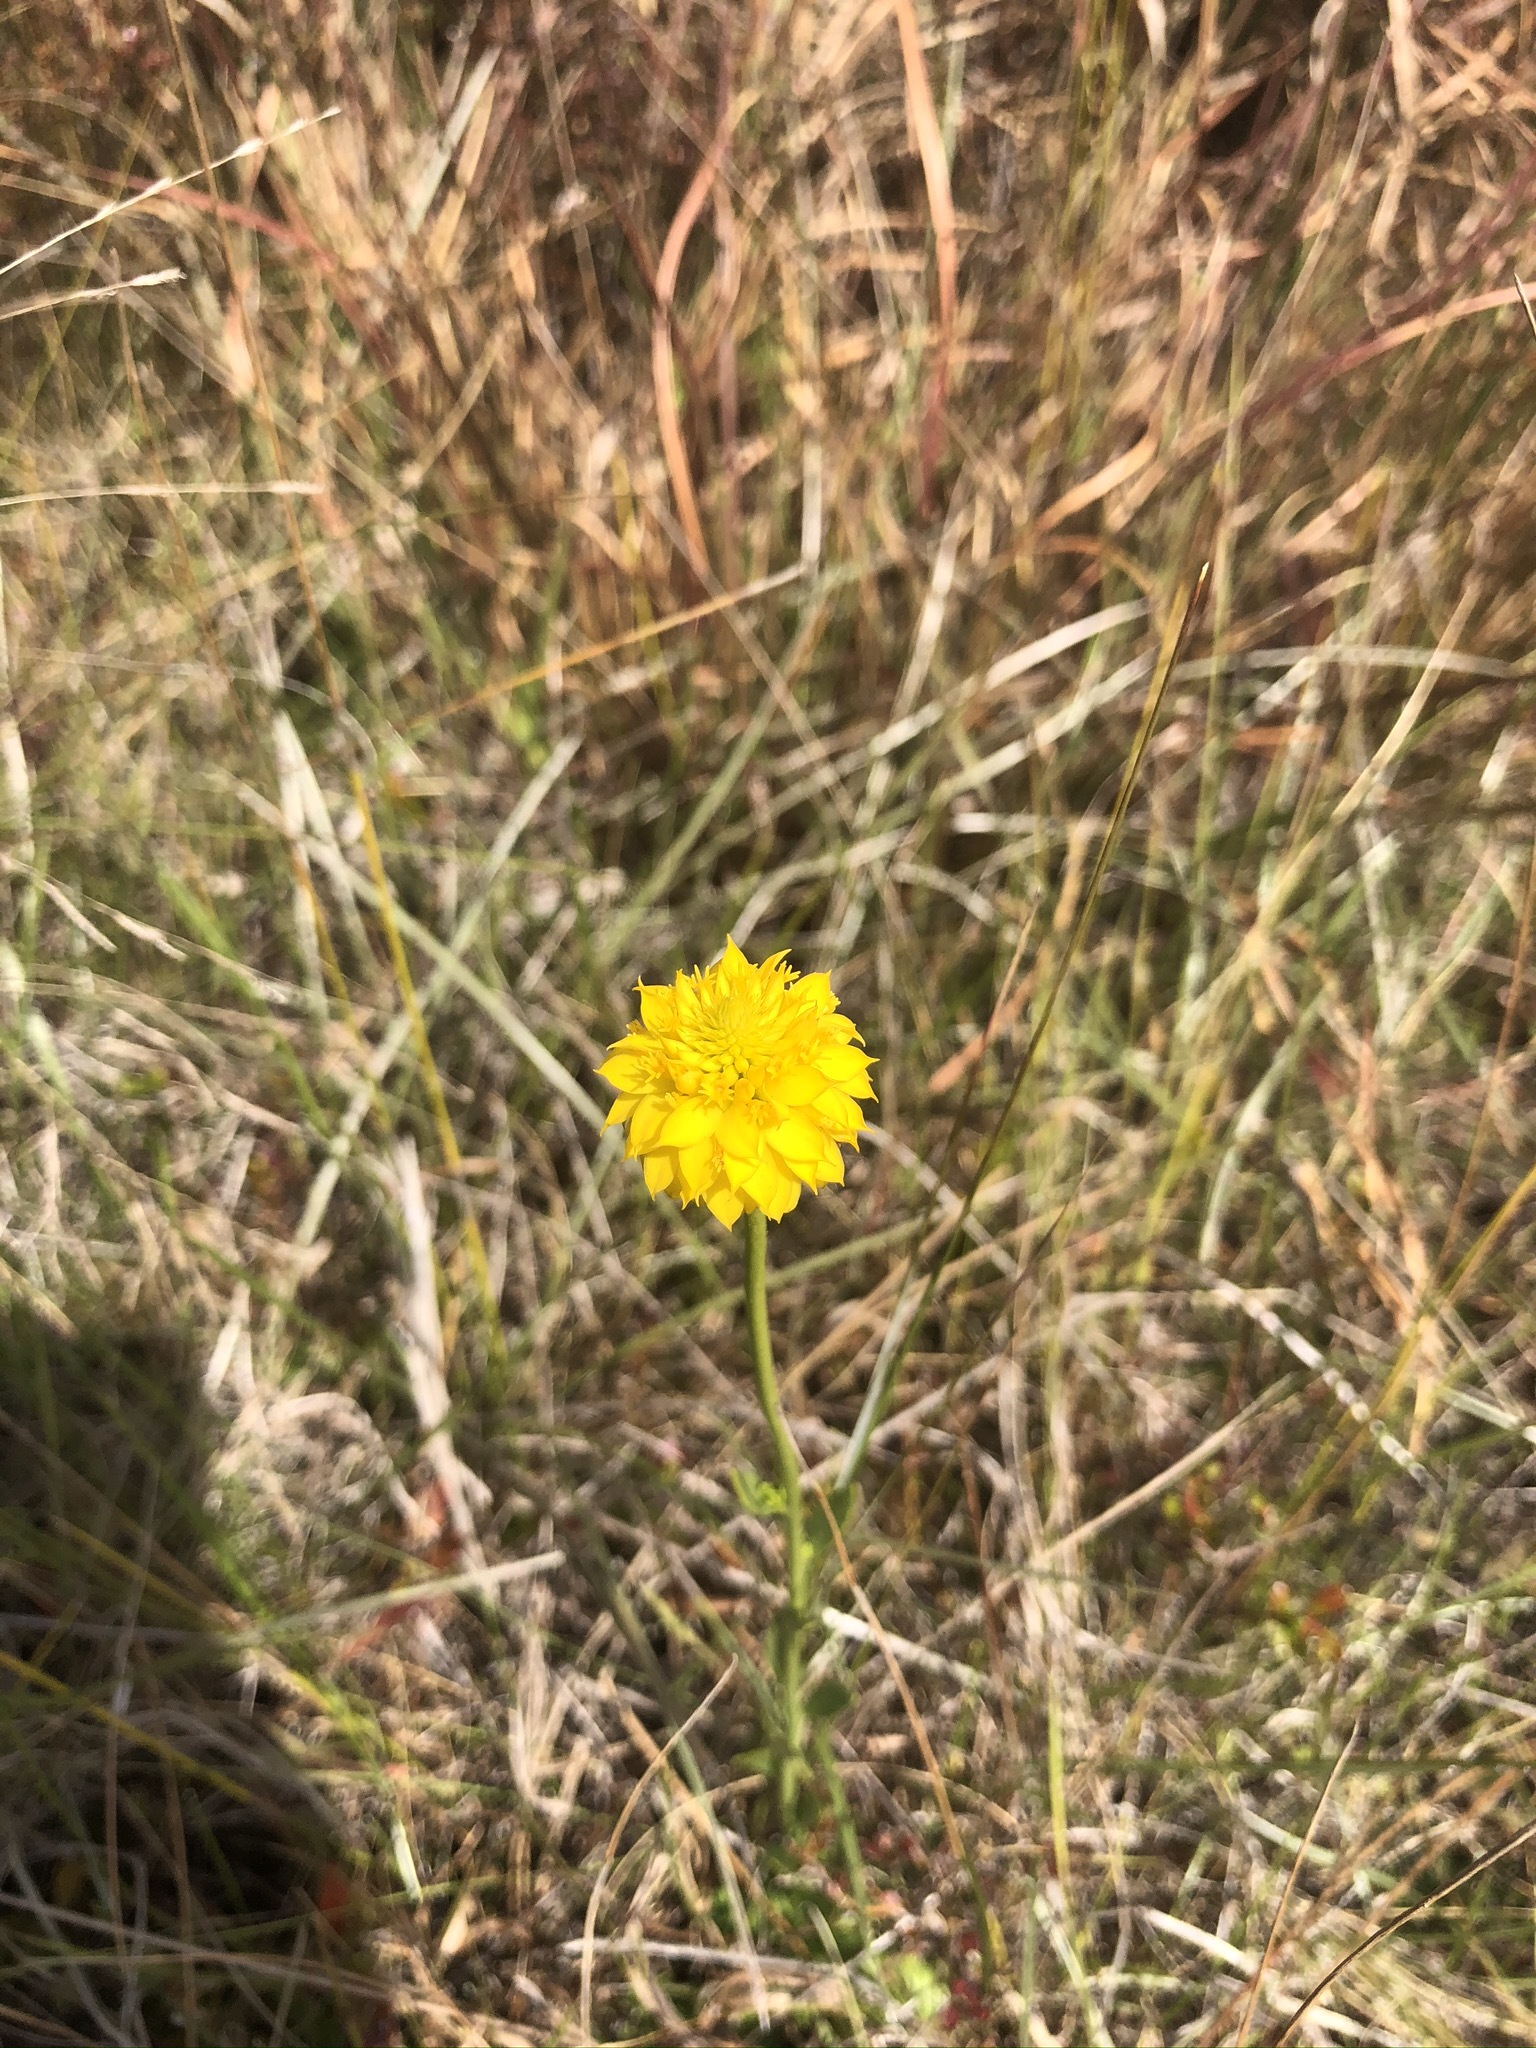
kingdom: Plantae
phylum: Tracheophyta
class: Magnoliopsida
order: Fabales
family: Polygalaceae
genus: Polygala
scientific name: Polygala rugelii
